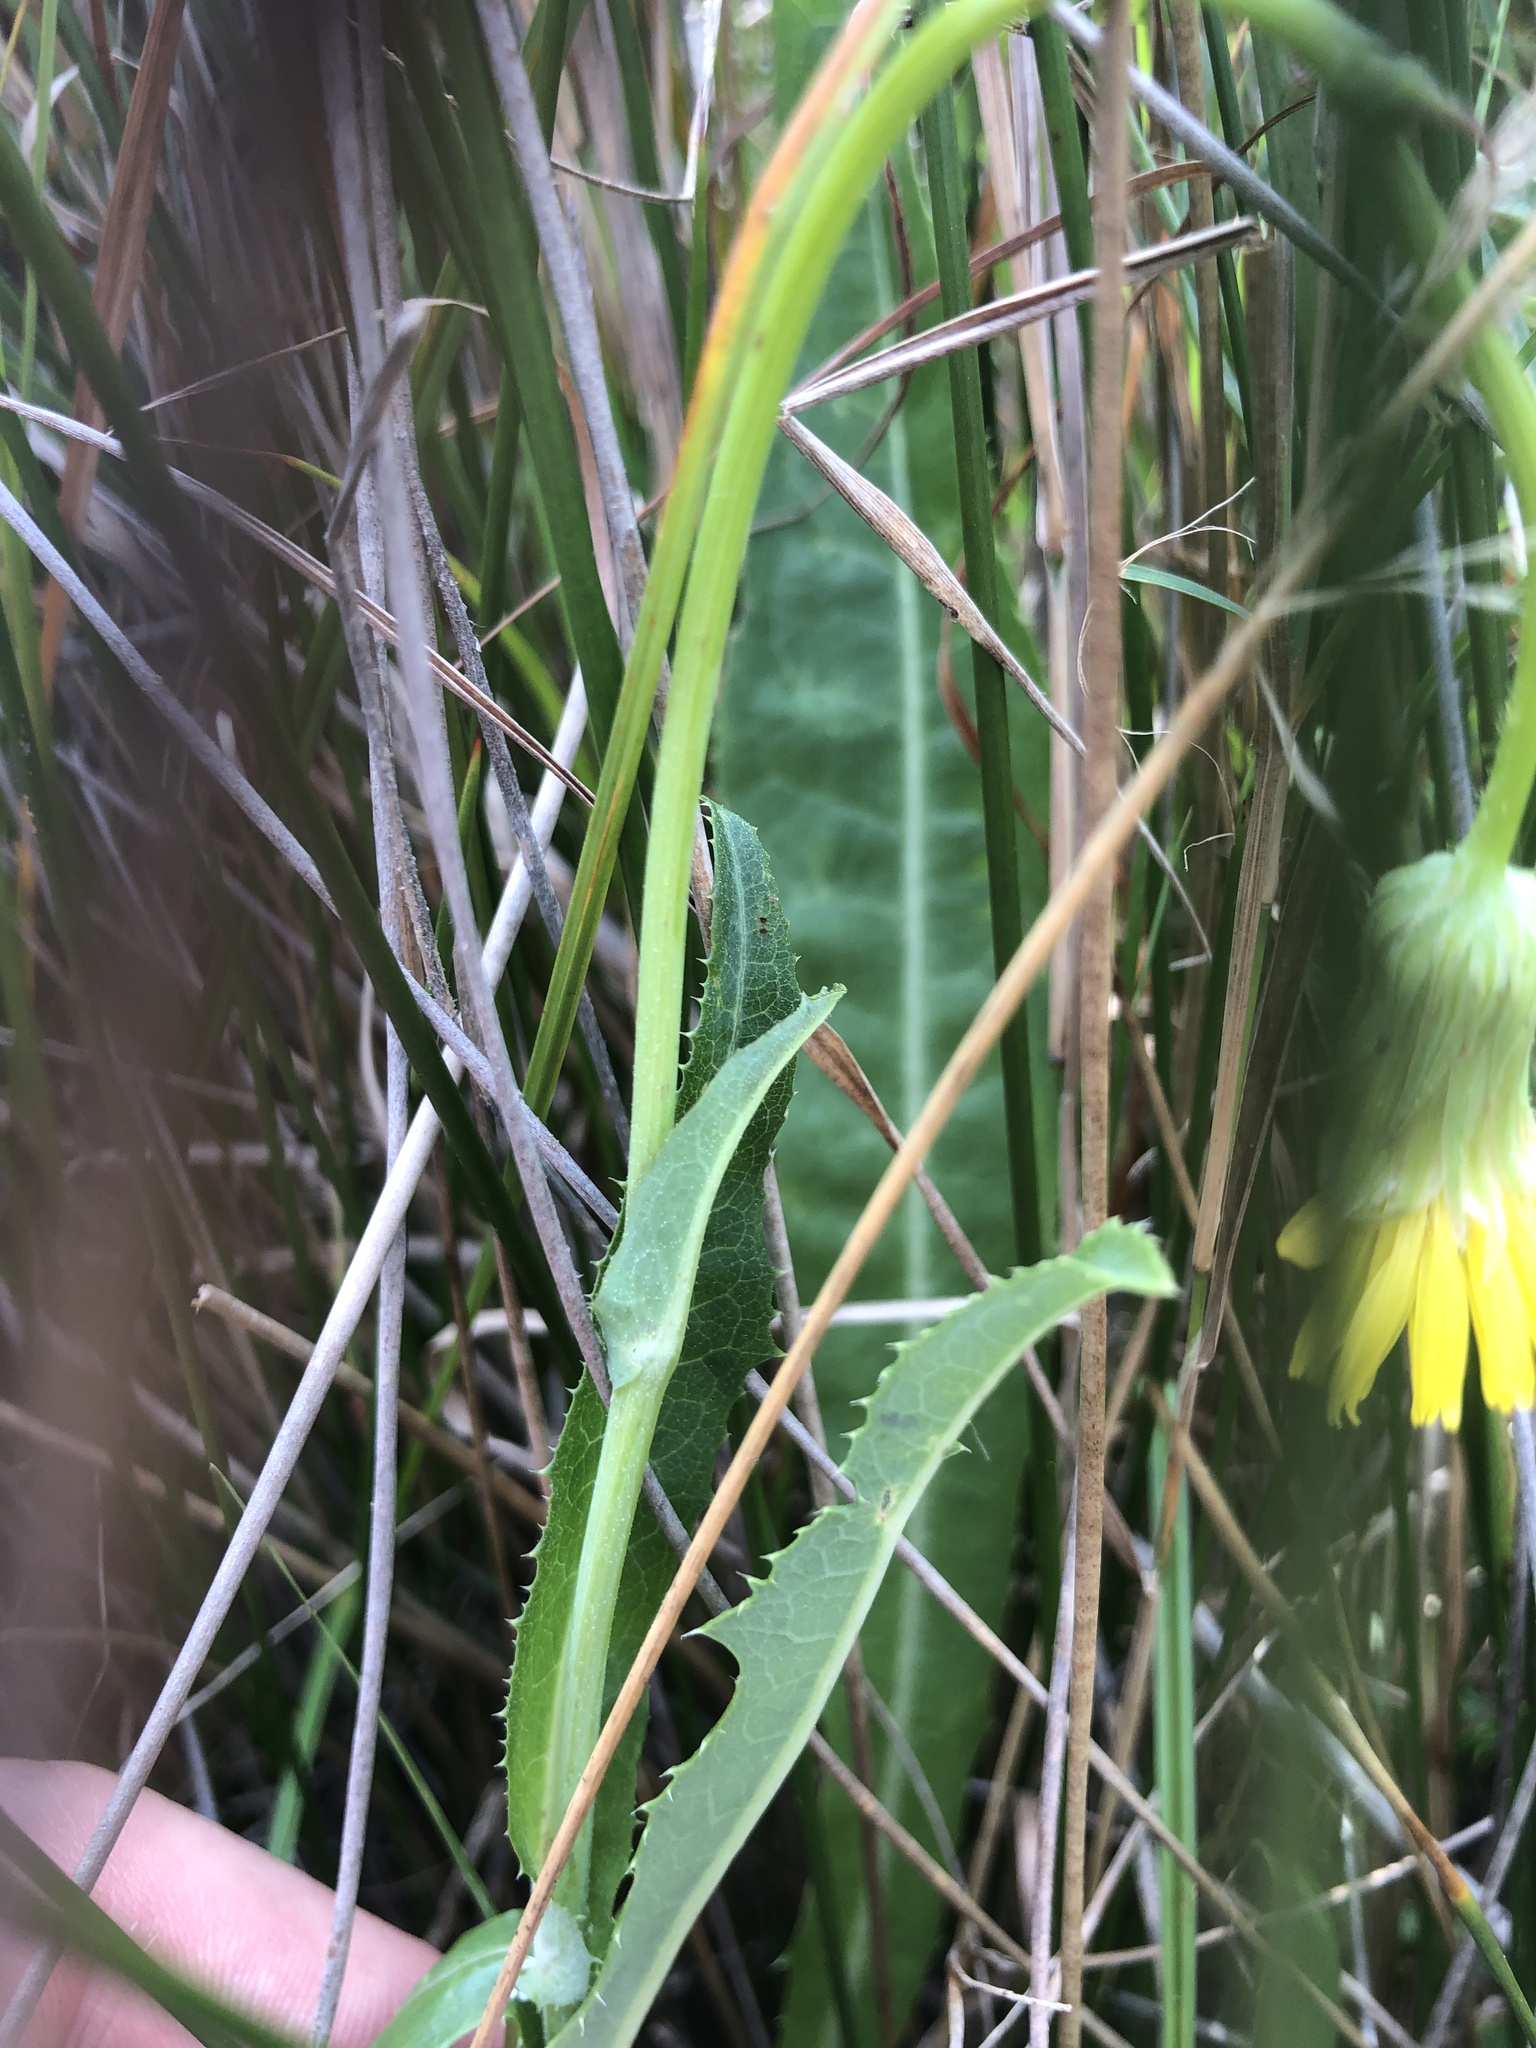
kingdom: Plantae
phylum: Tracheophyta
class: Magnoliopsida
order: Asterales
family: Asteraceae
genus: Sonchus
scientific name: Sonchus arvensis
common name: Perennial sow-thistle
